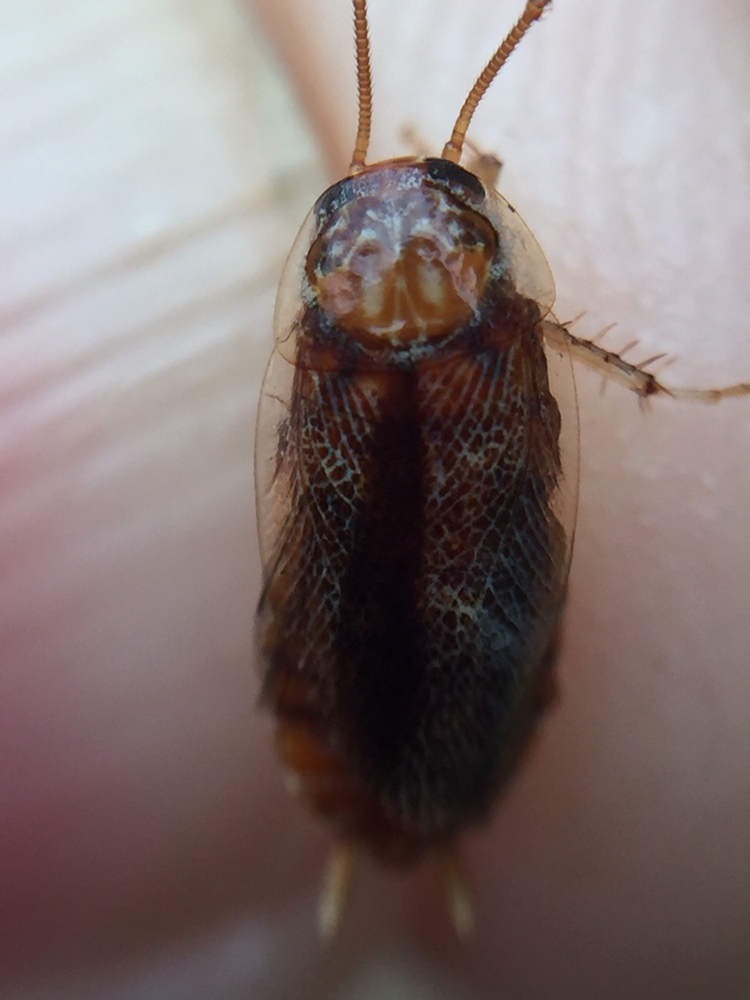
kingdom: Animalia
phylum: Arthropoda
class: Insecta
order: Blattodea
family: Ectobiidae
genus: Ornatiblatta
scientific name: Ornatiblatta maori
